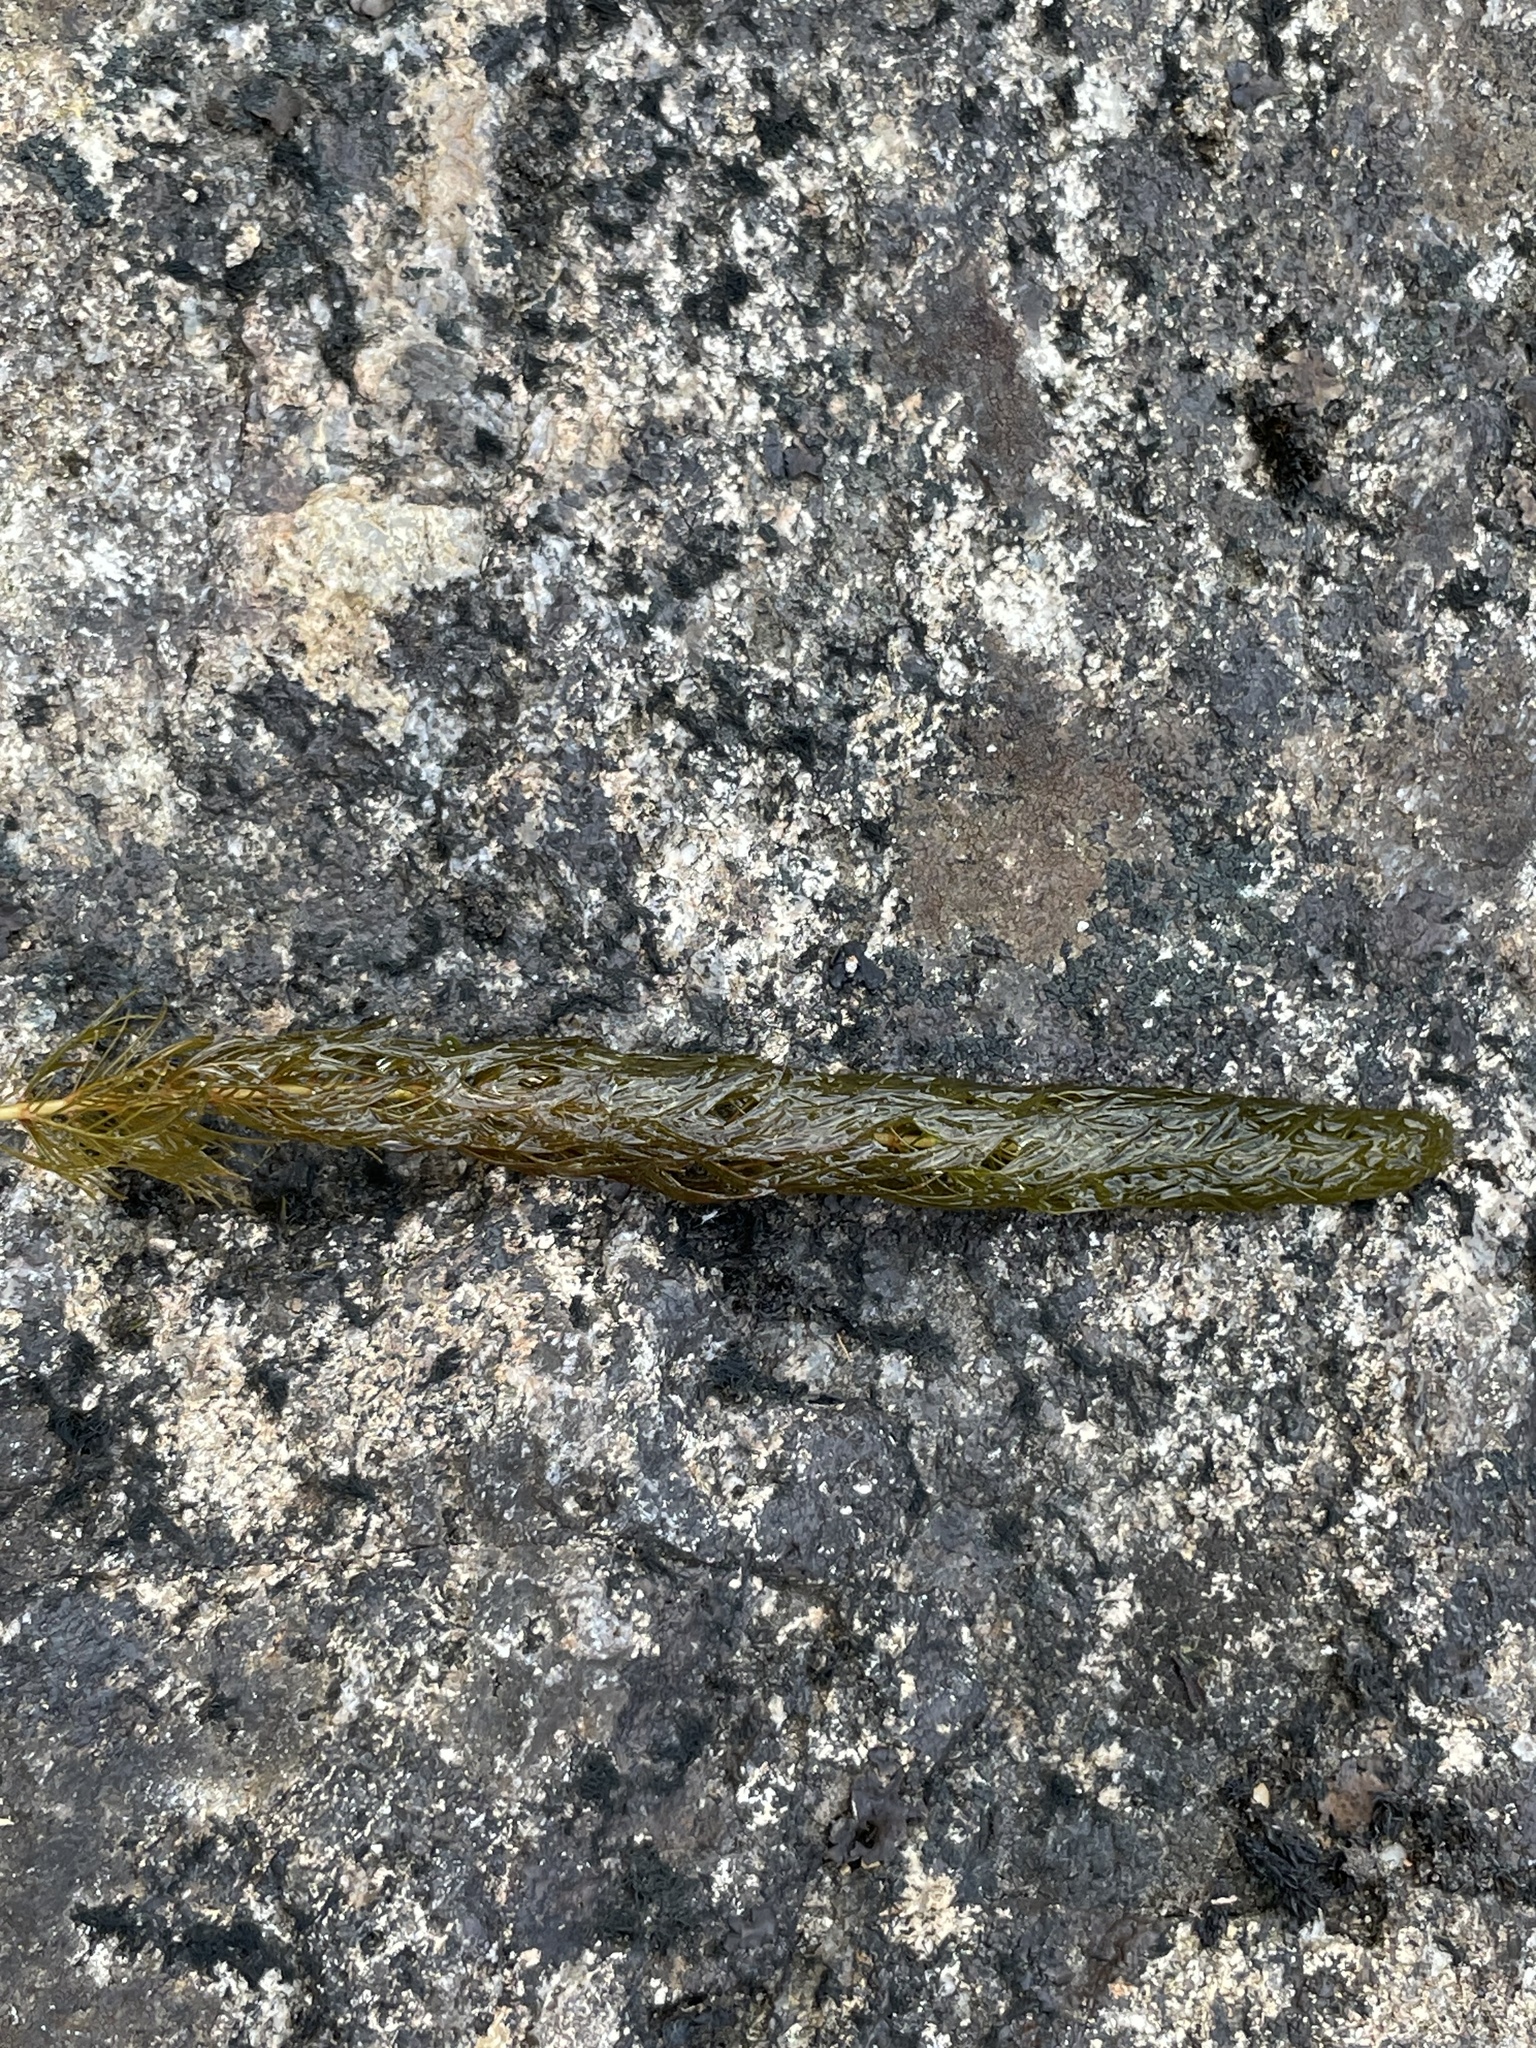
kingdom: Plantae
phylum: Tracheophyta
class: Magnoliopsida
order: Saxifragales
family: Haloragaceae
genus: Myriophyllum
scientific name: Myriophyllum alterniflorum
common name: Alternate water-milfoil
